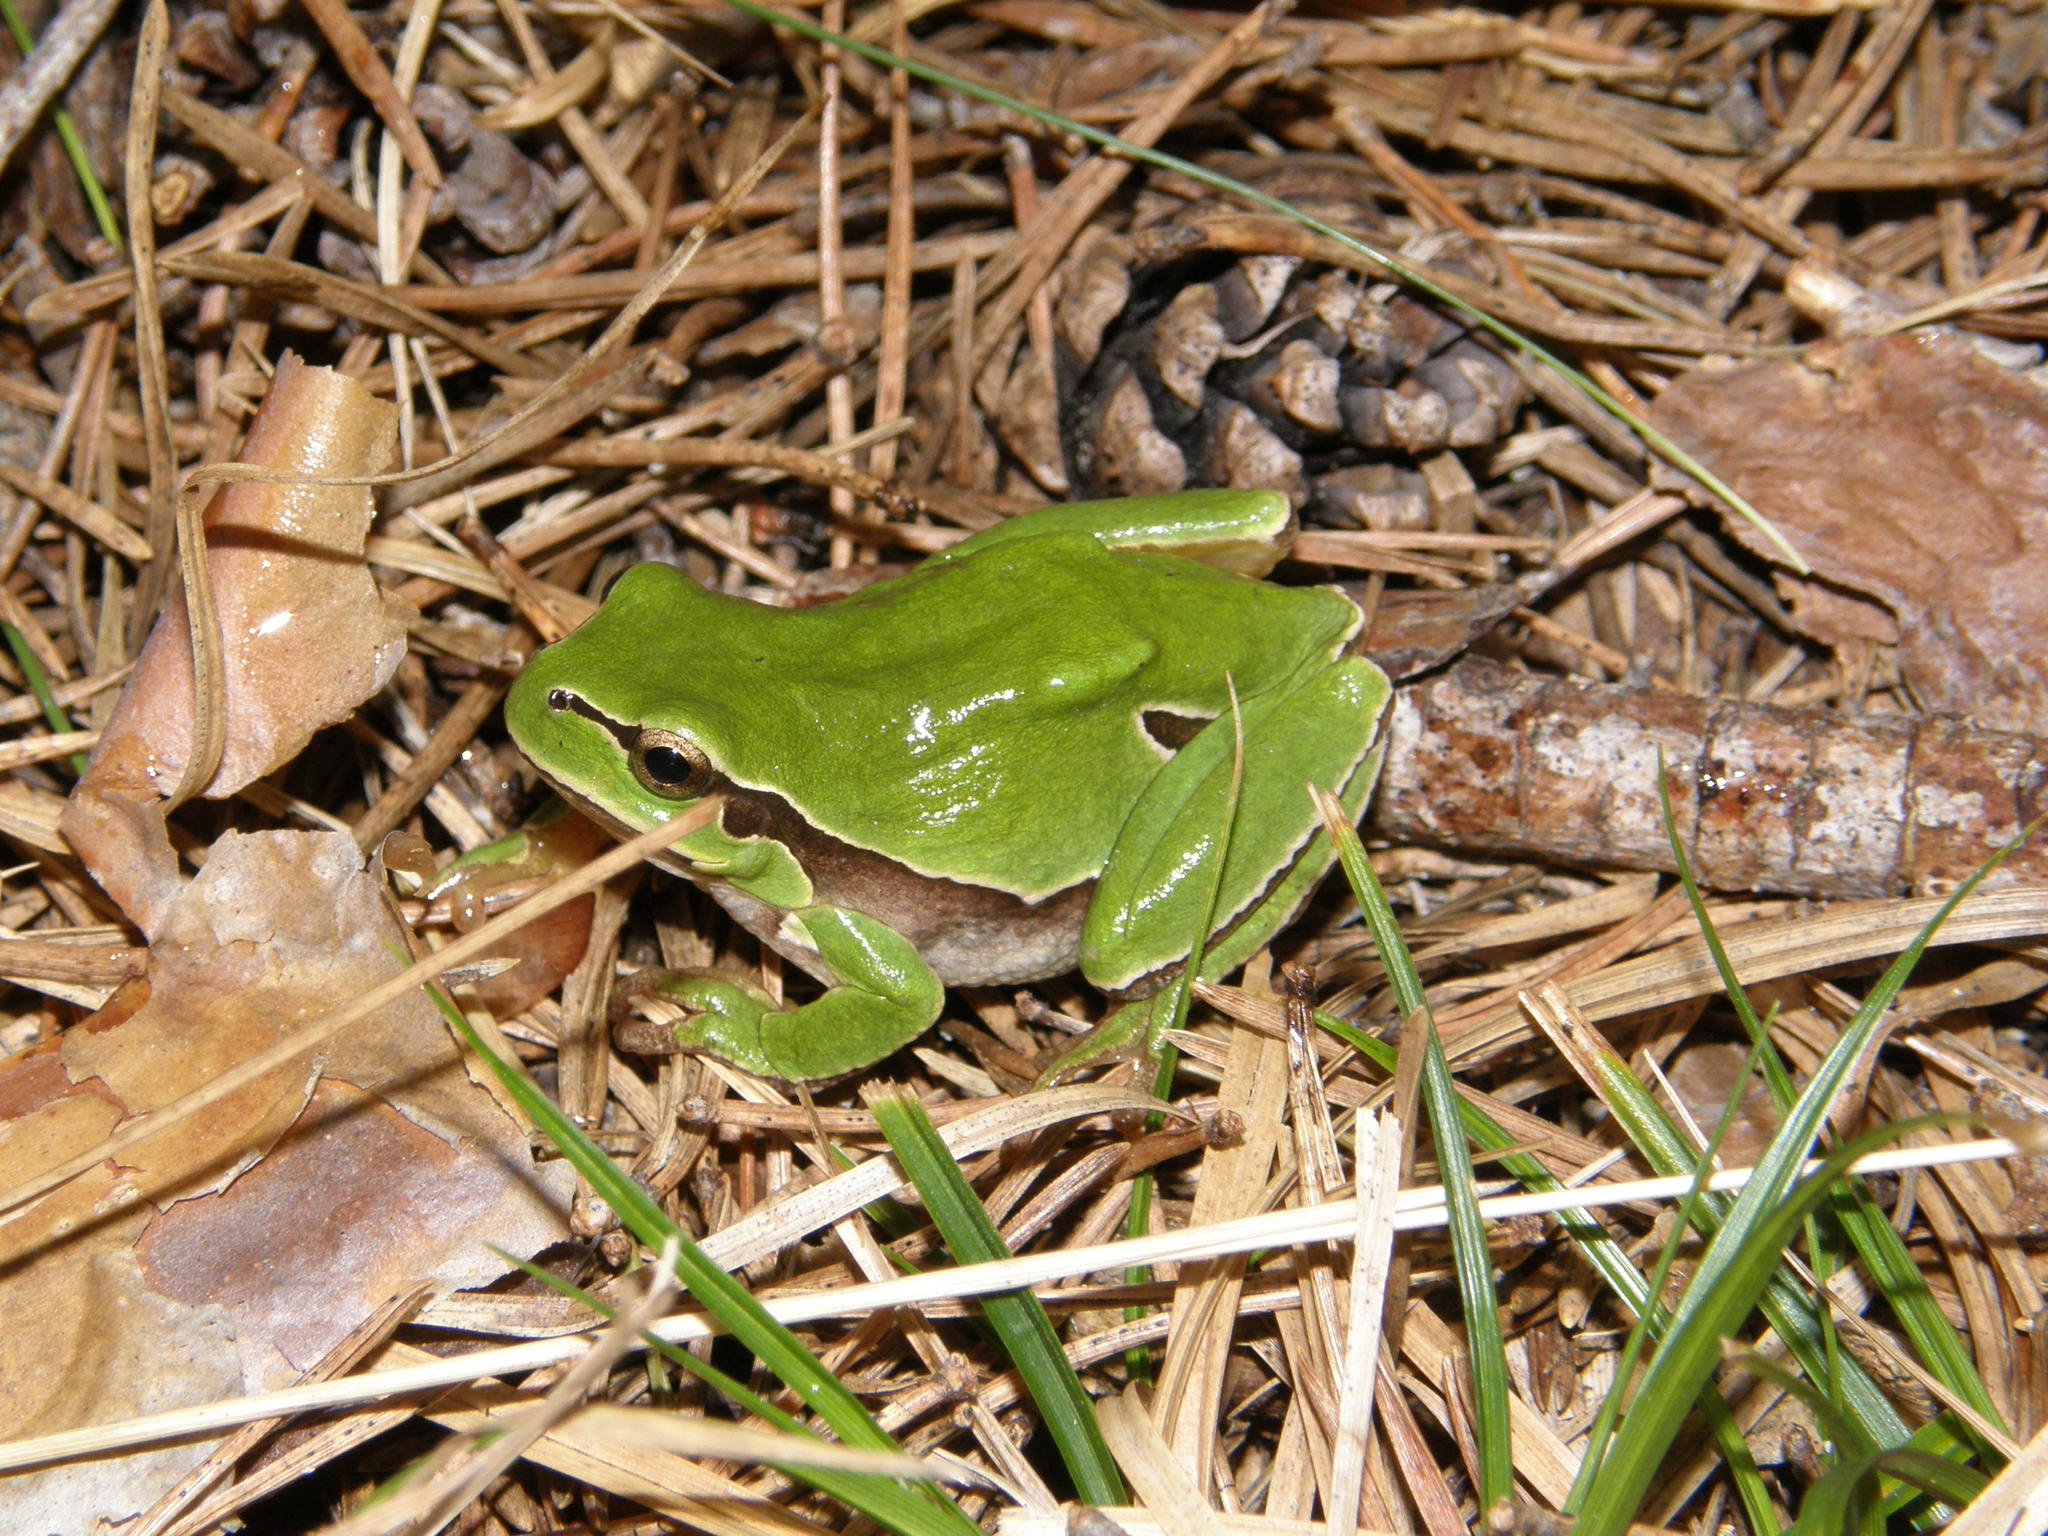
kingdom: Animalia
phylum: Chordata
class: Amphibia
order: Anura
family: Hylidae
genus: Hyla
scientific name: Hyla molleri
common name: Iberian tree frog
